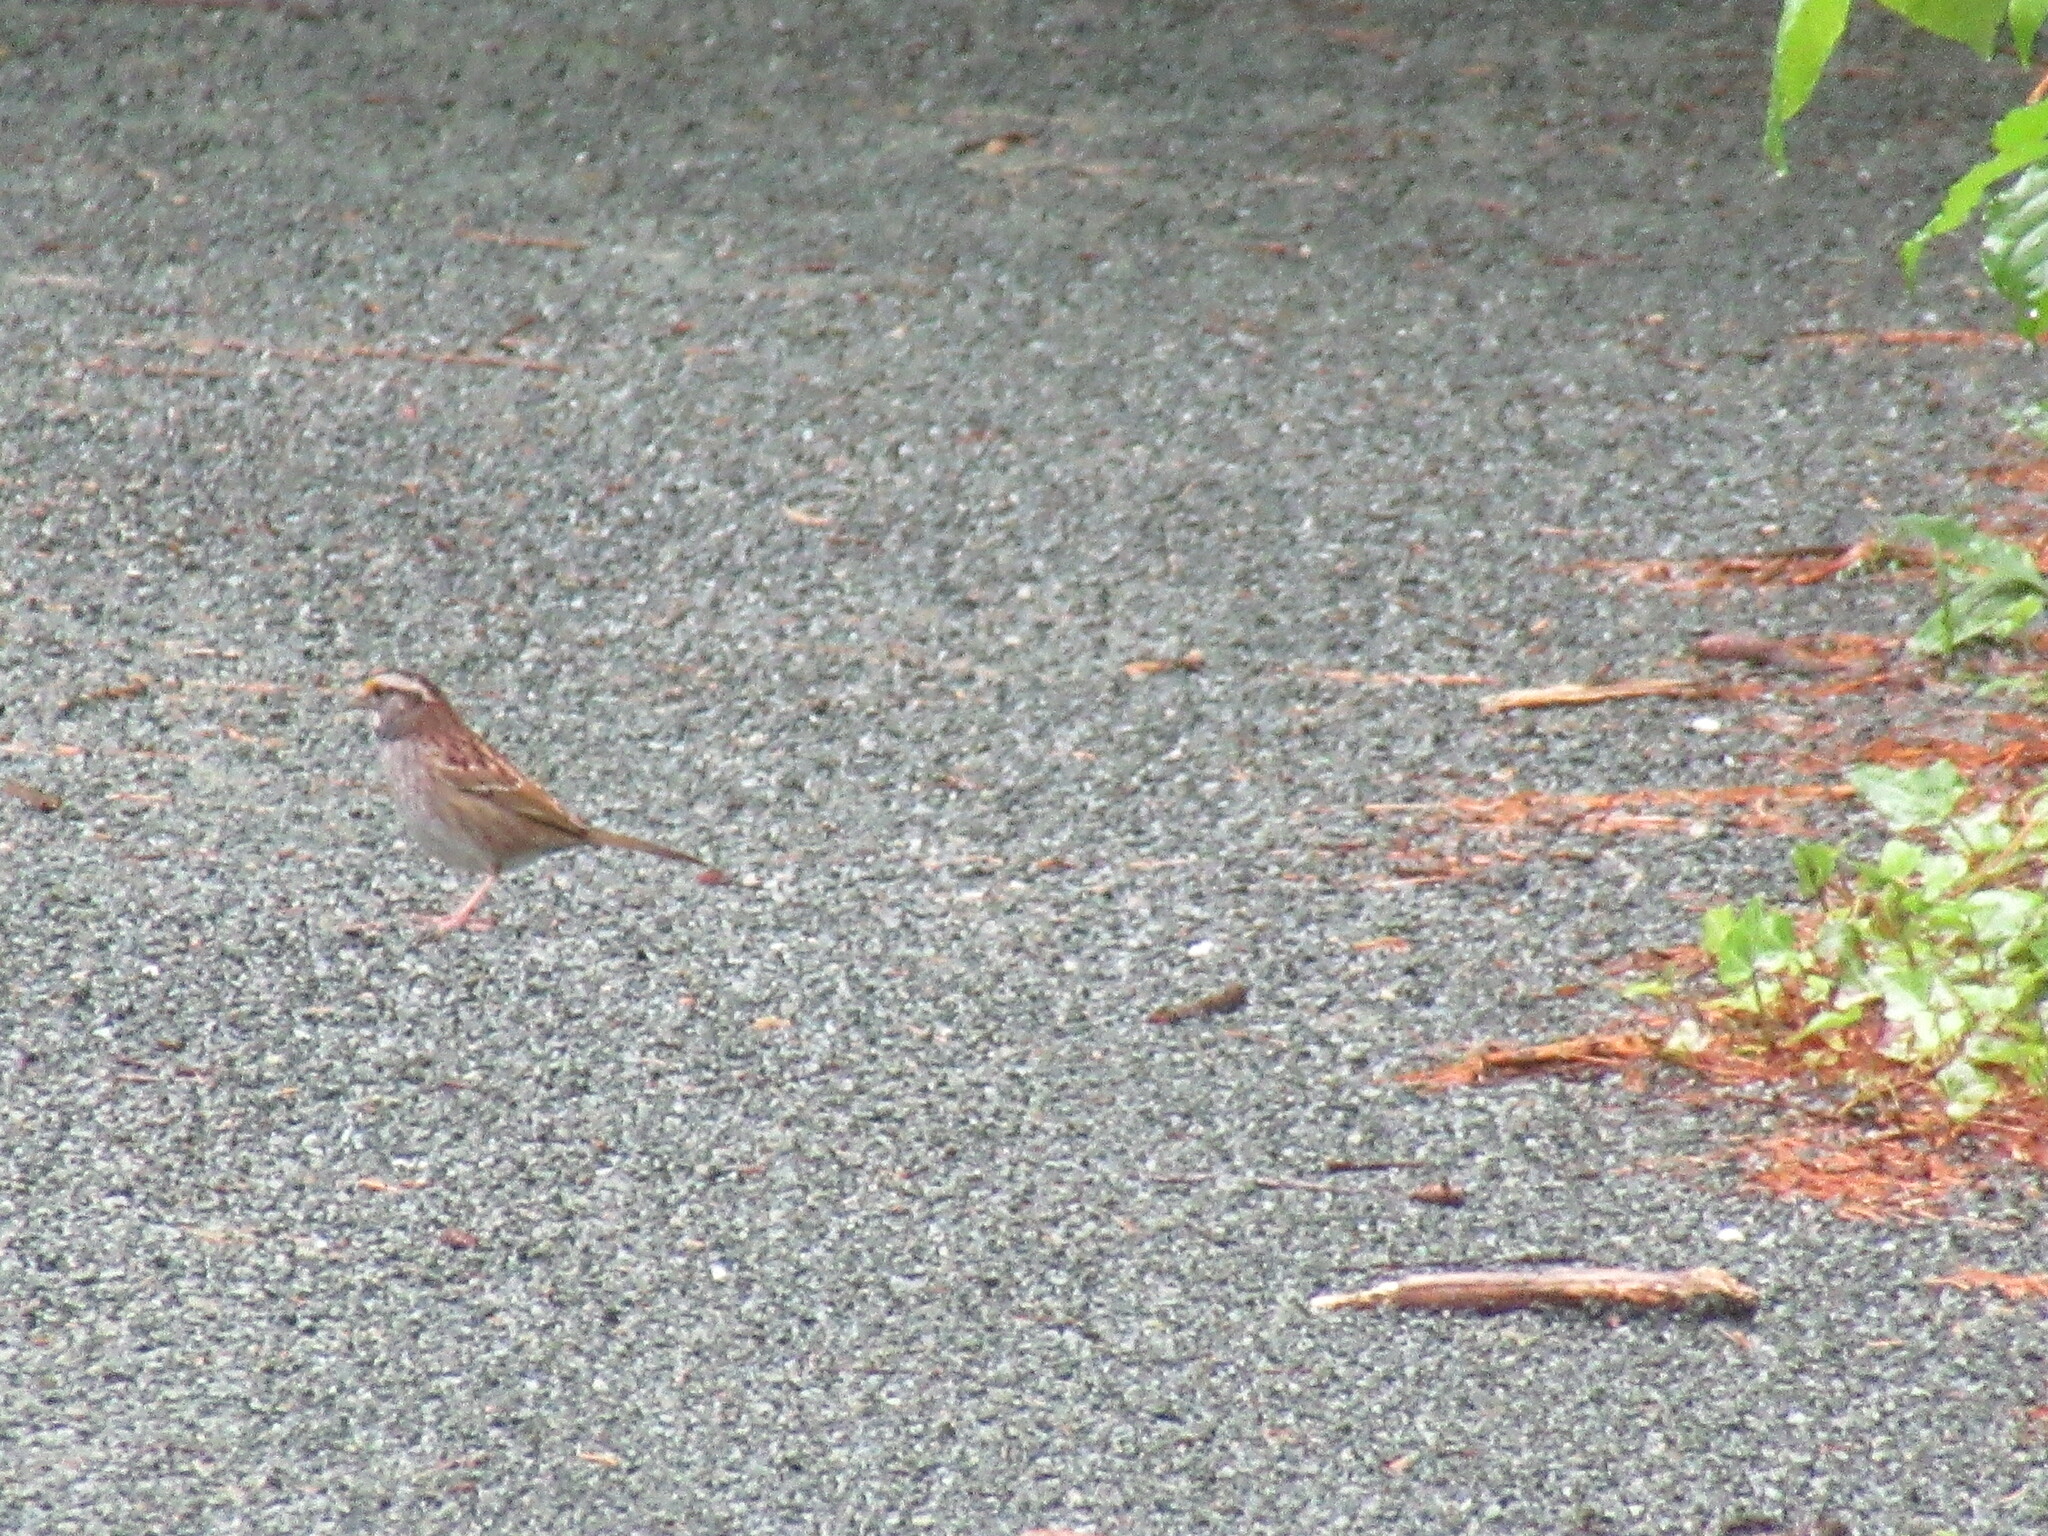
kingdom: Animalia
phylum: Chordata
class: Aves
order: Passeriformes
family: Passerellidae
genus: Zonotrichia
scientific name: Zonotrichia albicollis
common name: White-throated sparrow
